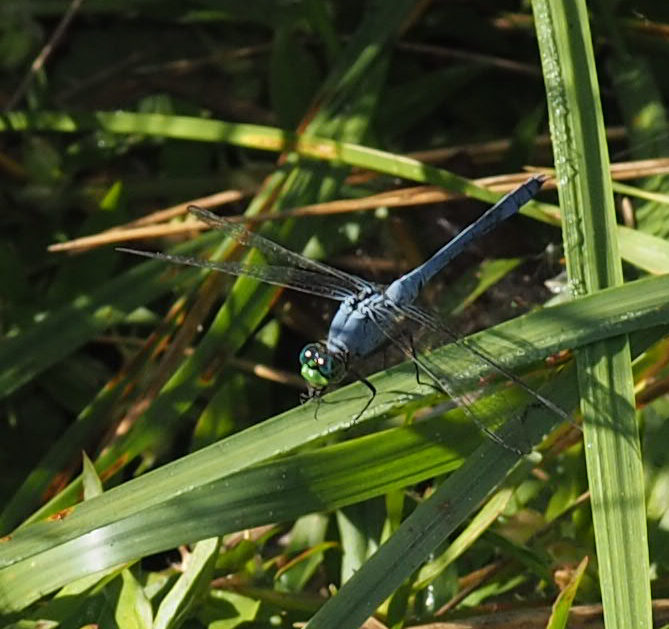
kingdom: Animalia
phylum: Arthropoda
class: Insecta
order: Odonata
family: Libellulidae
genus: Erythemis
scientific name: Erythemis simplicicollis
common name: Eastern pondhawk
